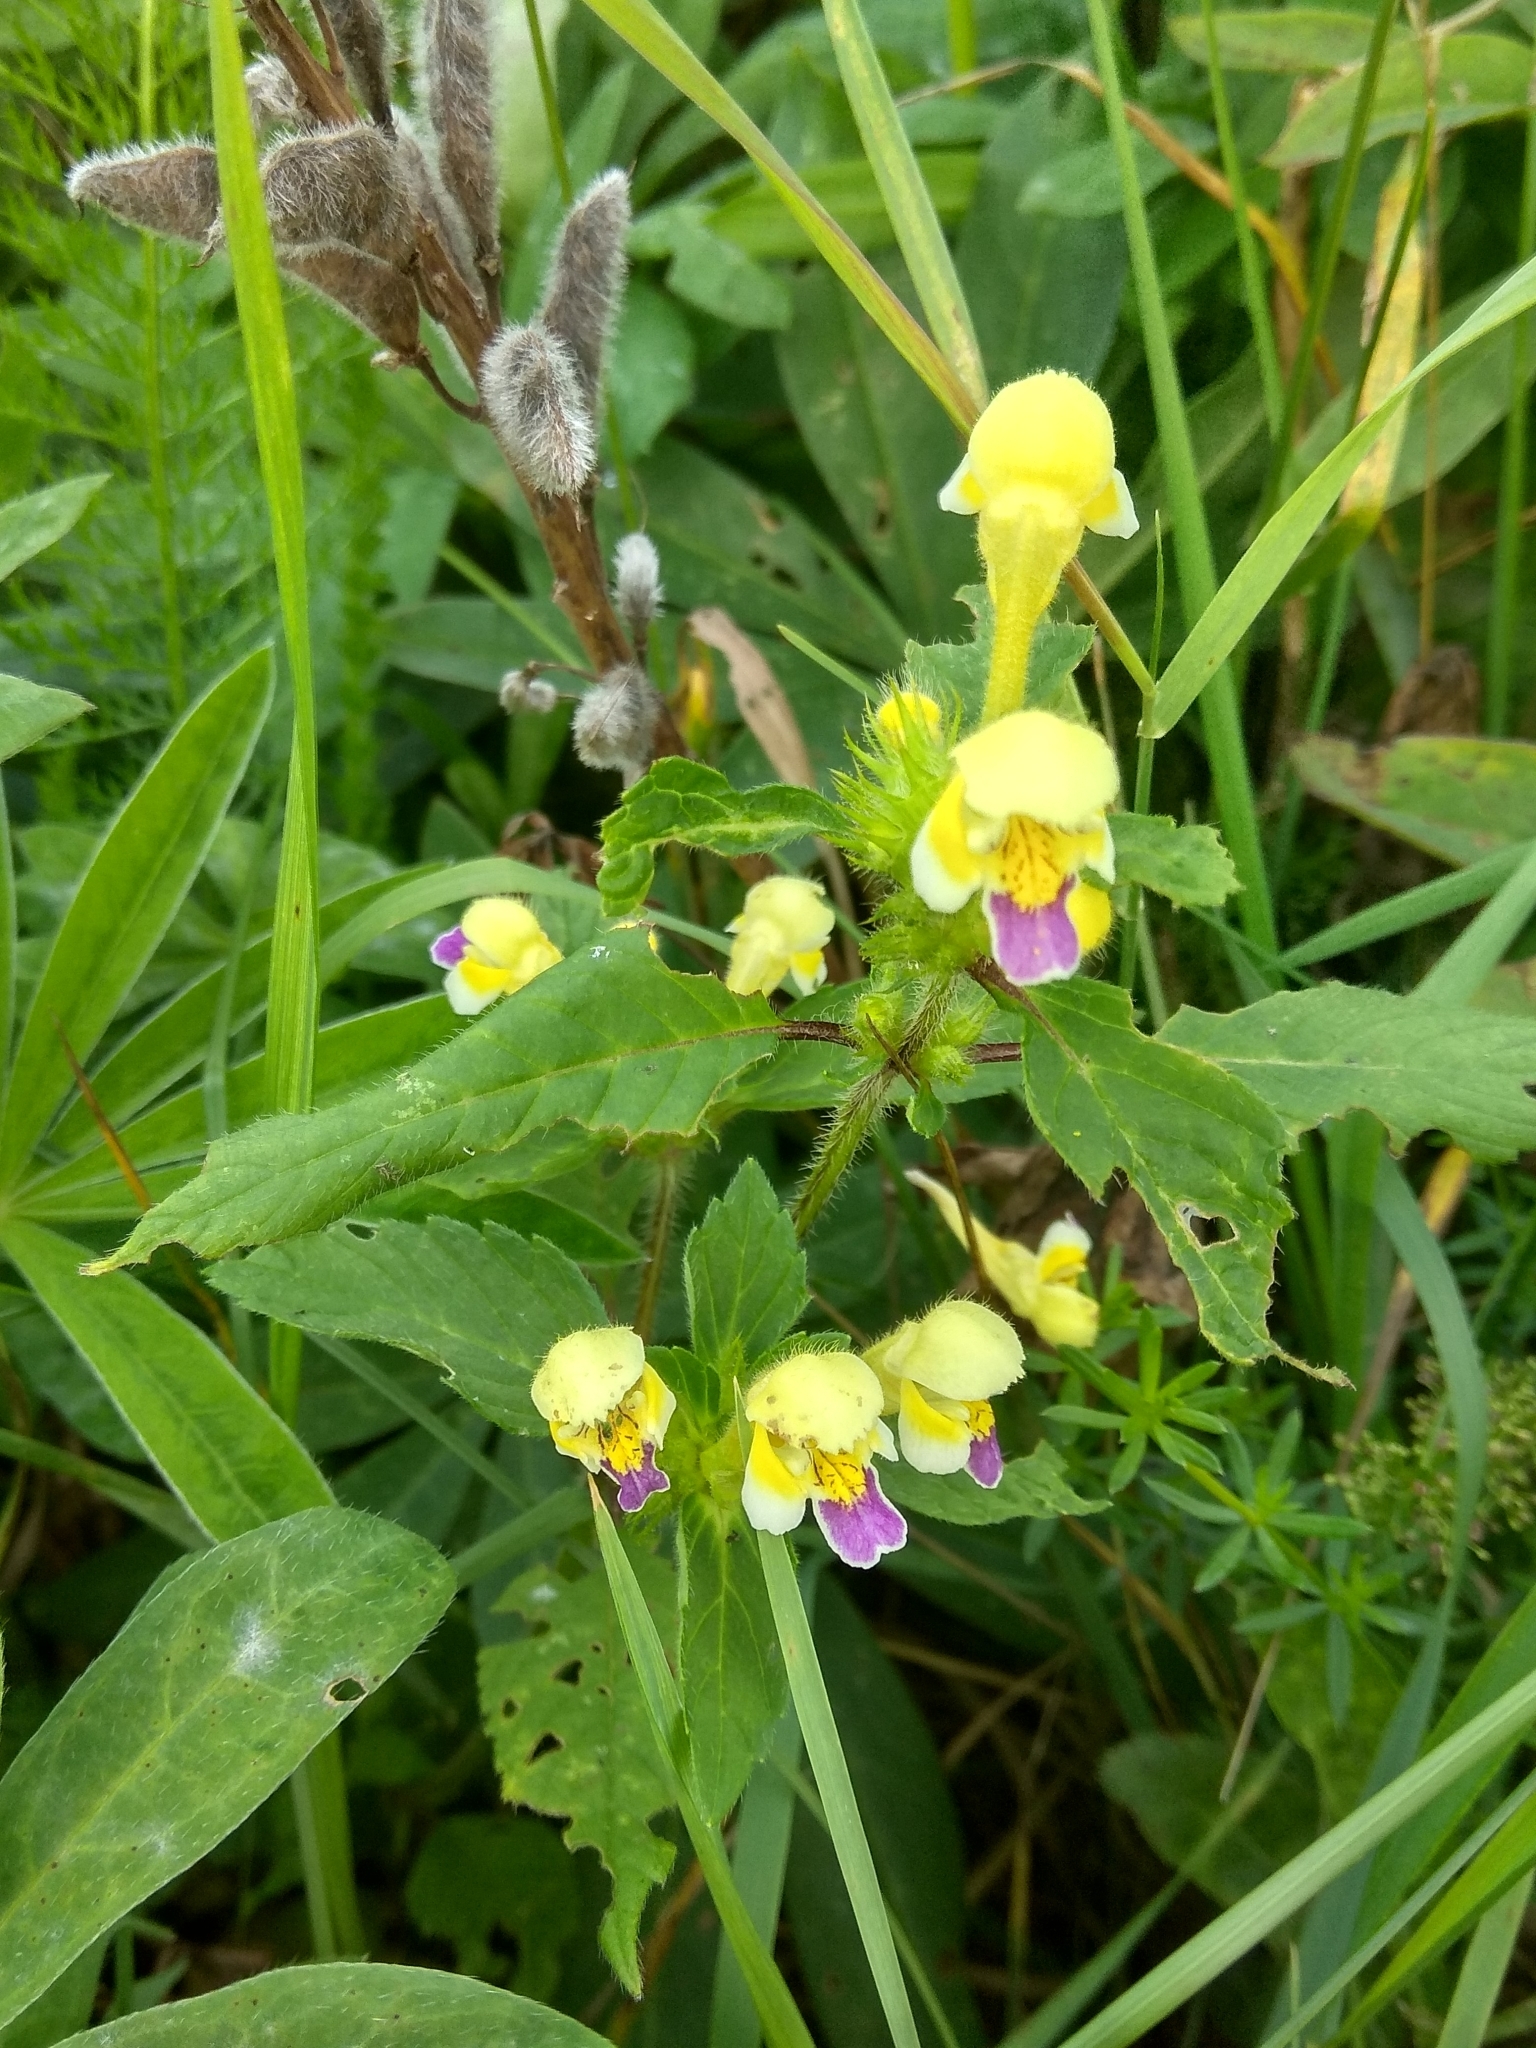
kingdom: Plantae
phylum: Tracheophyta
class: Magnoliopsida
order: Lamiales
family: Lamiaceae
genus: Galeopsis
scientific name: Galeopsis speciosa
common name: Large-flowered hemp-nettle
